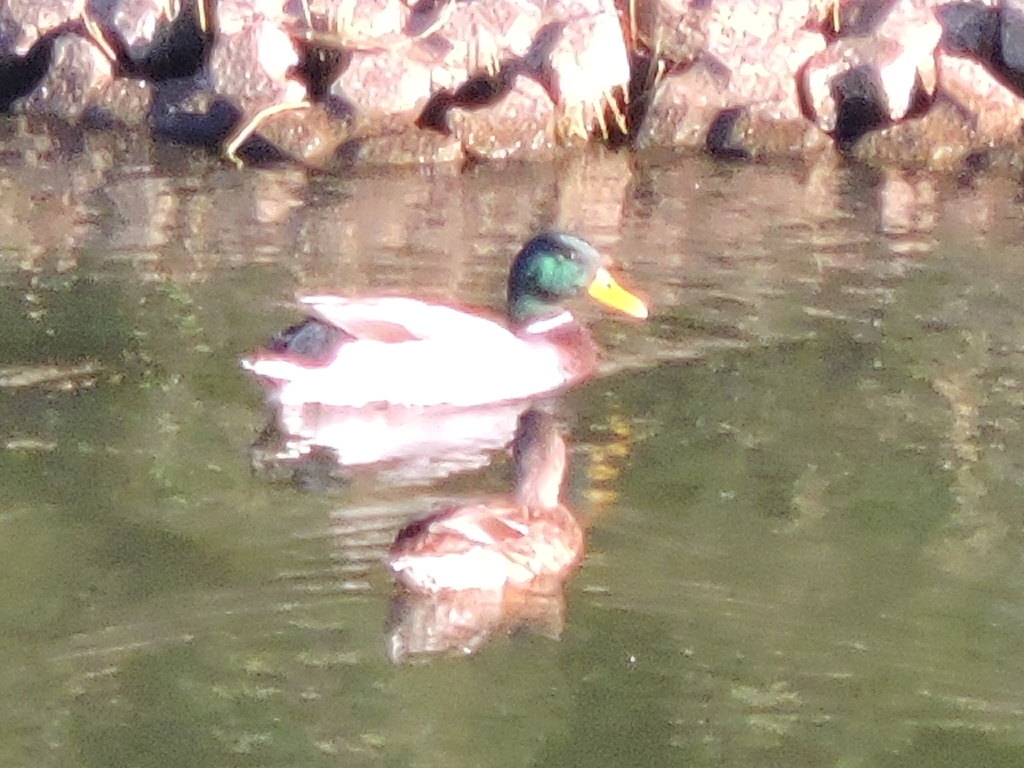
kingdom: Animalia
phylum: Chordata
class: Aves
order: Anseriformes
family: Anatidae
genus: Anas
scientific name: Anas platyrhynchos
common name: Mallard
